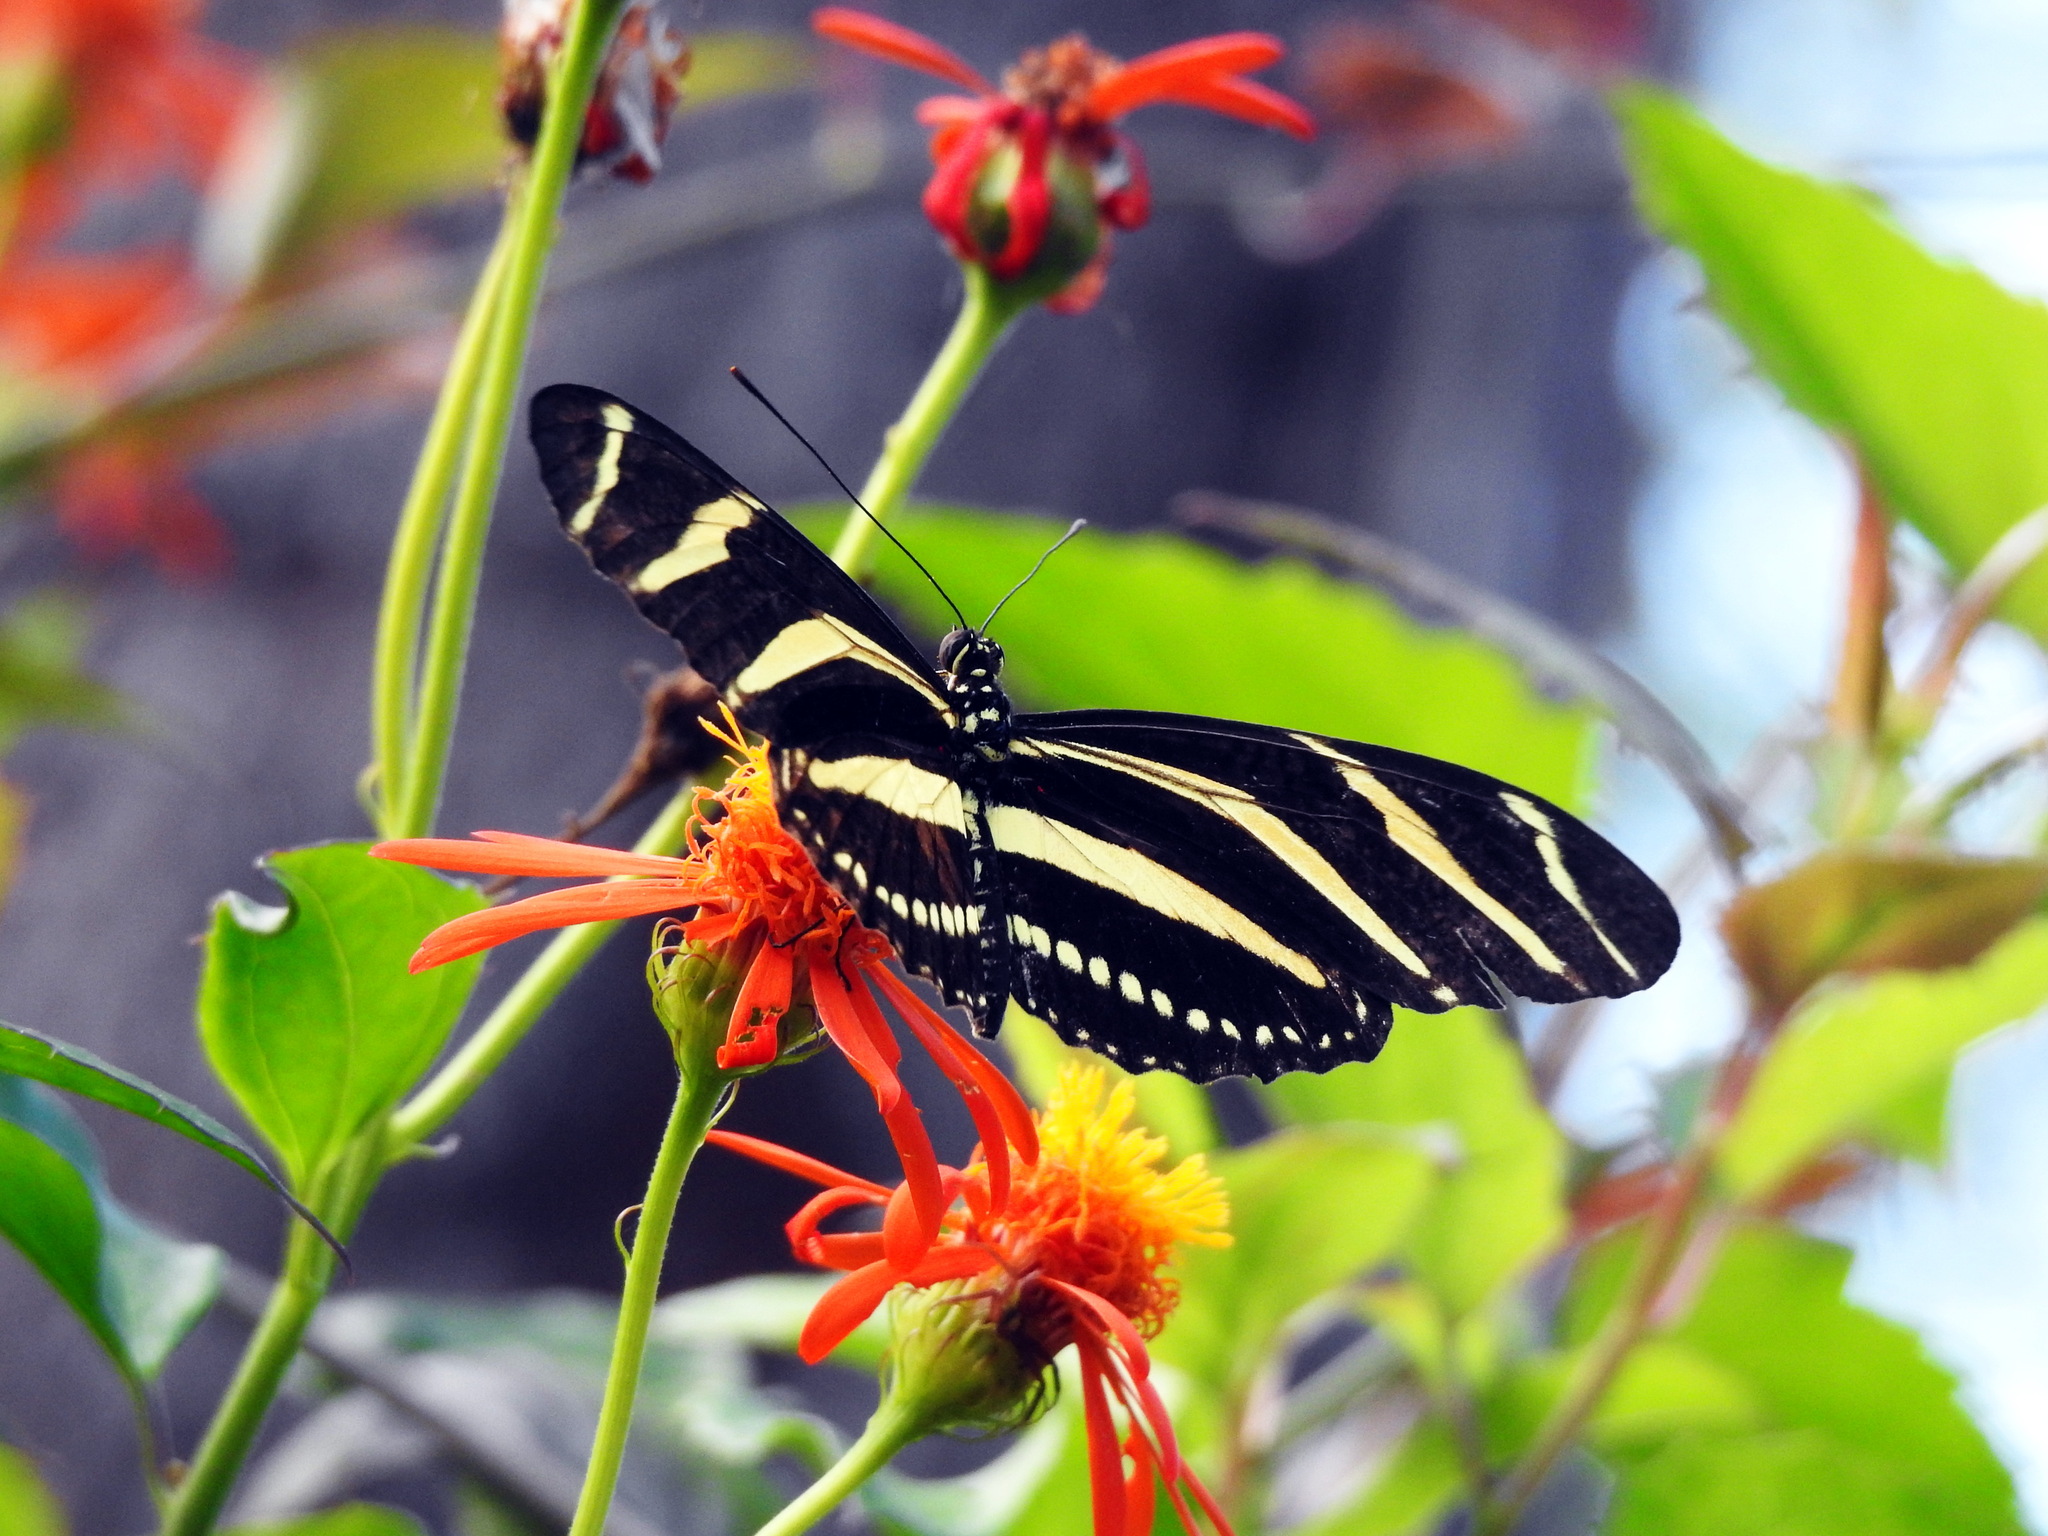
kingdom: Animalia
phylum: Arthropoda
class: Insecta
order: Lepidoptera
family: Nymphalidae
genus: Heliconius
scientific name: Heliconius charithonia
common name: Zebra long wing
